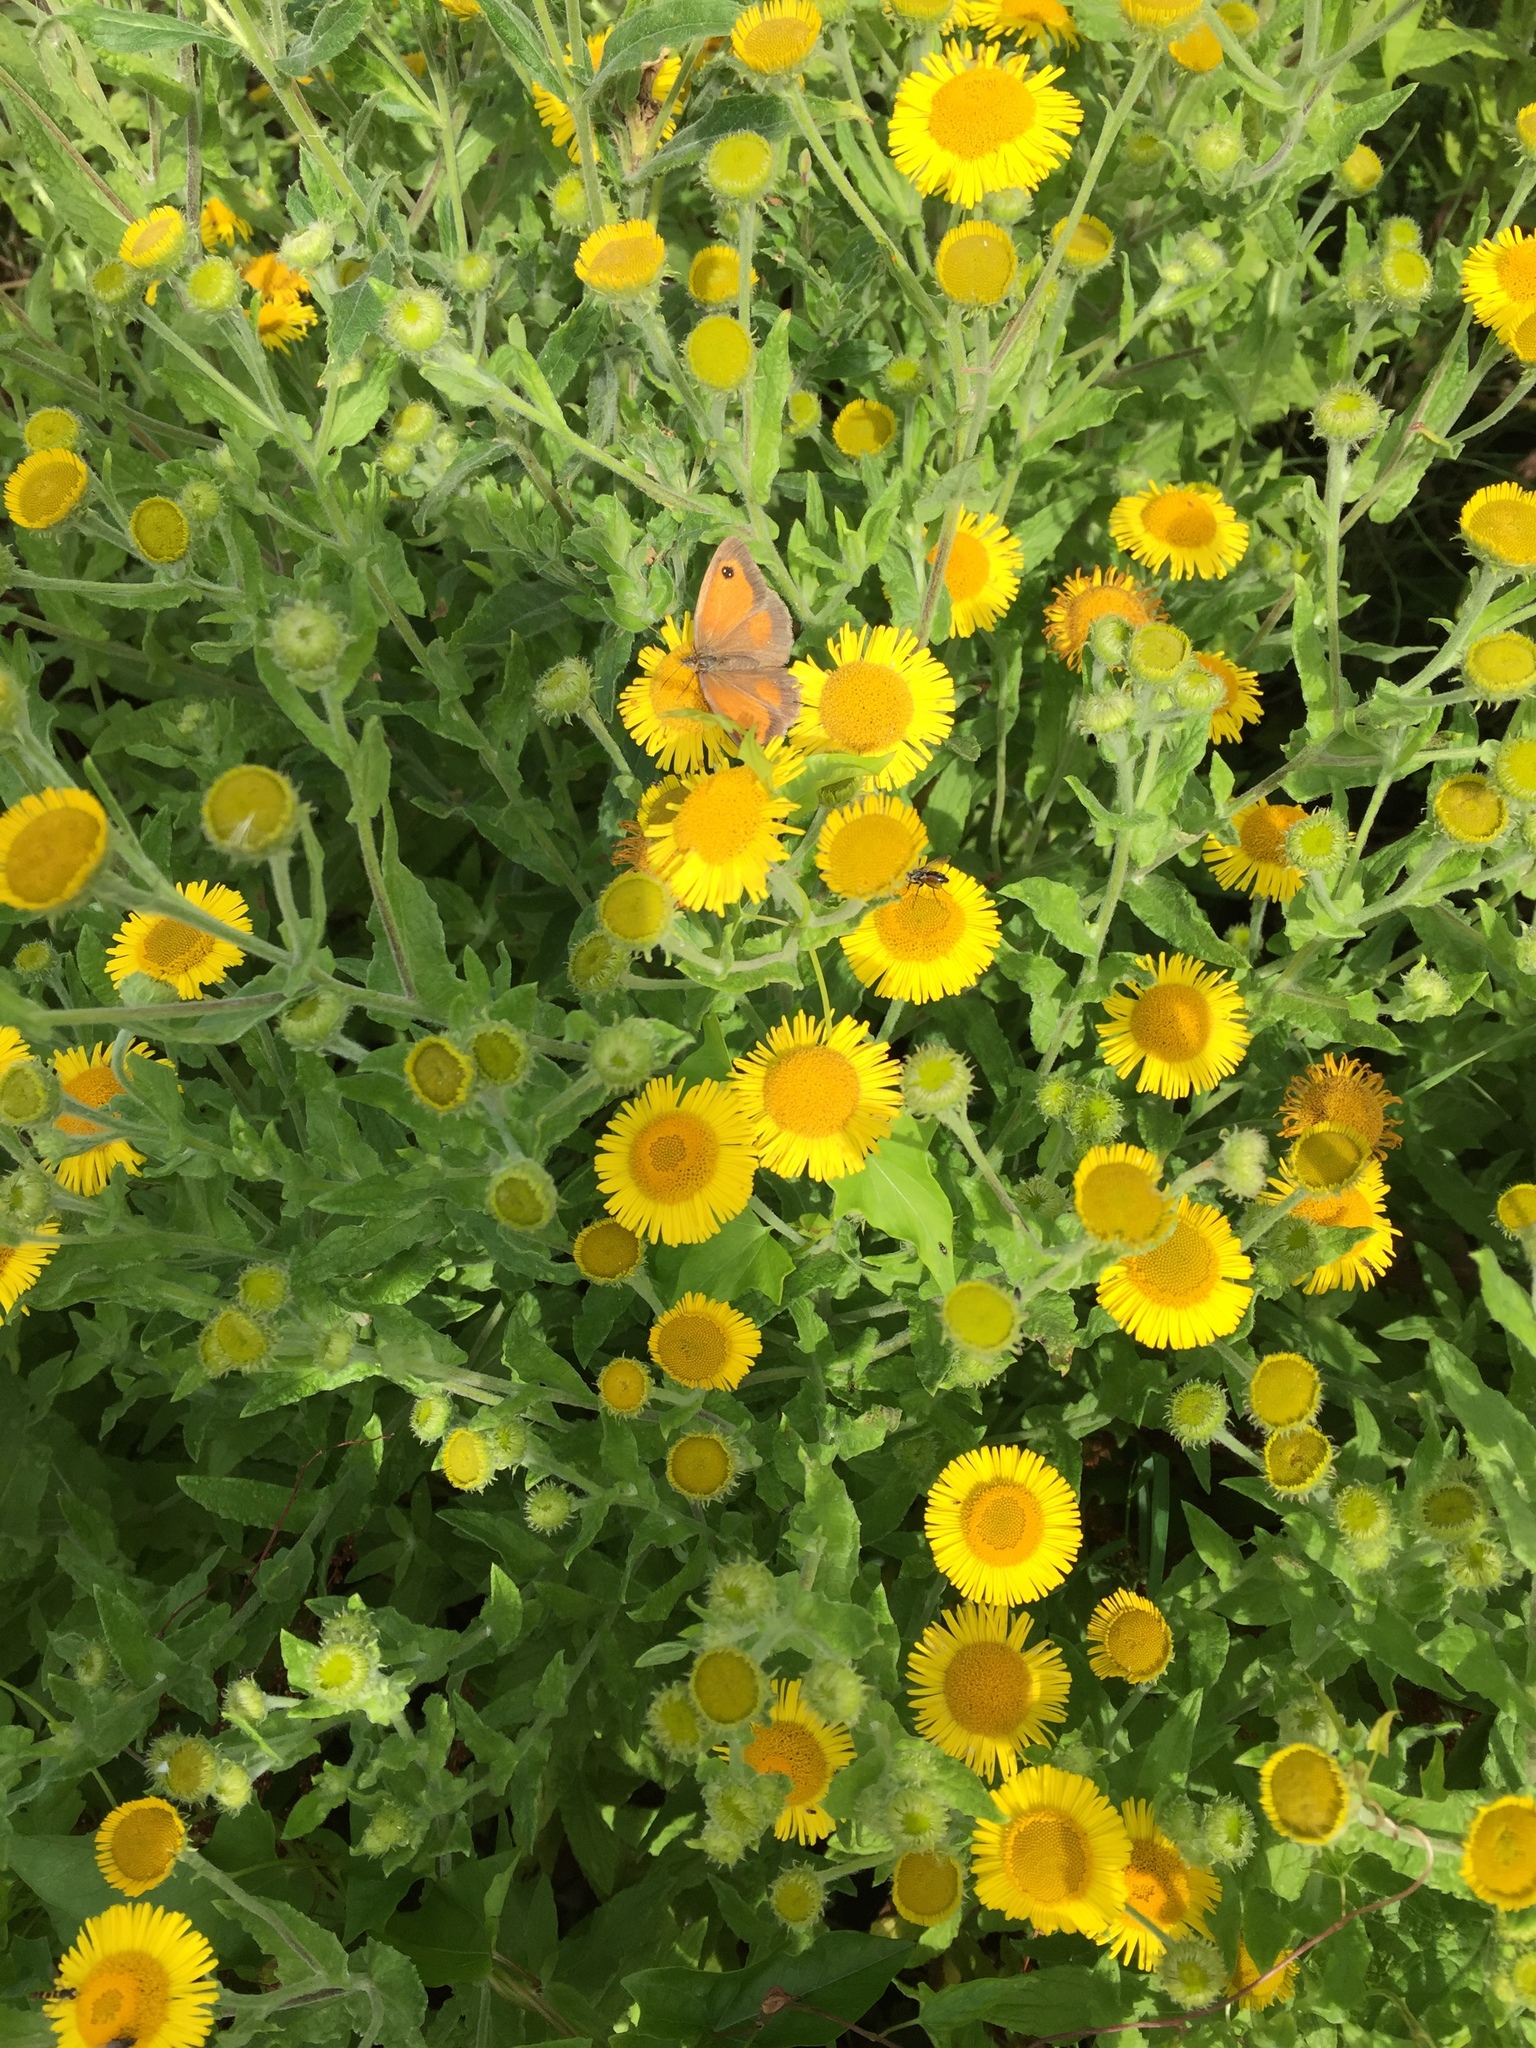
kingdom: Animalia
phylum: Arthropoda
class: Insecta
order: Lepidoptera
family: Nymphalidae
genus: Pyronia
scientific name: Pyronia tithonus
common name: Gatekeeper
